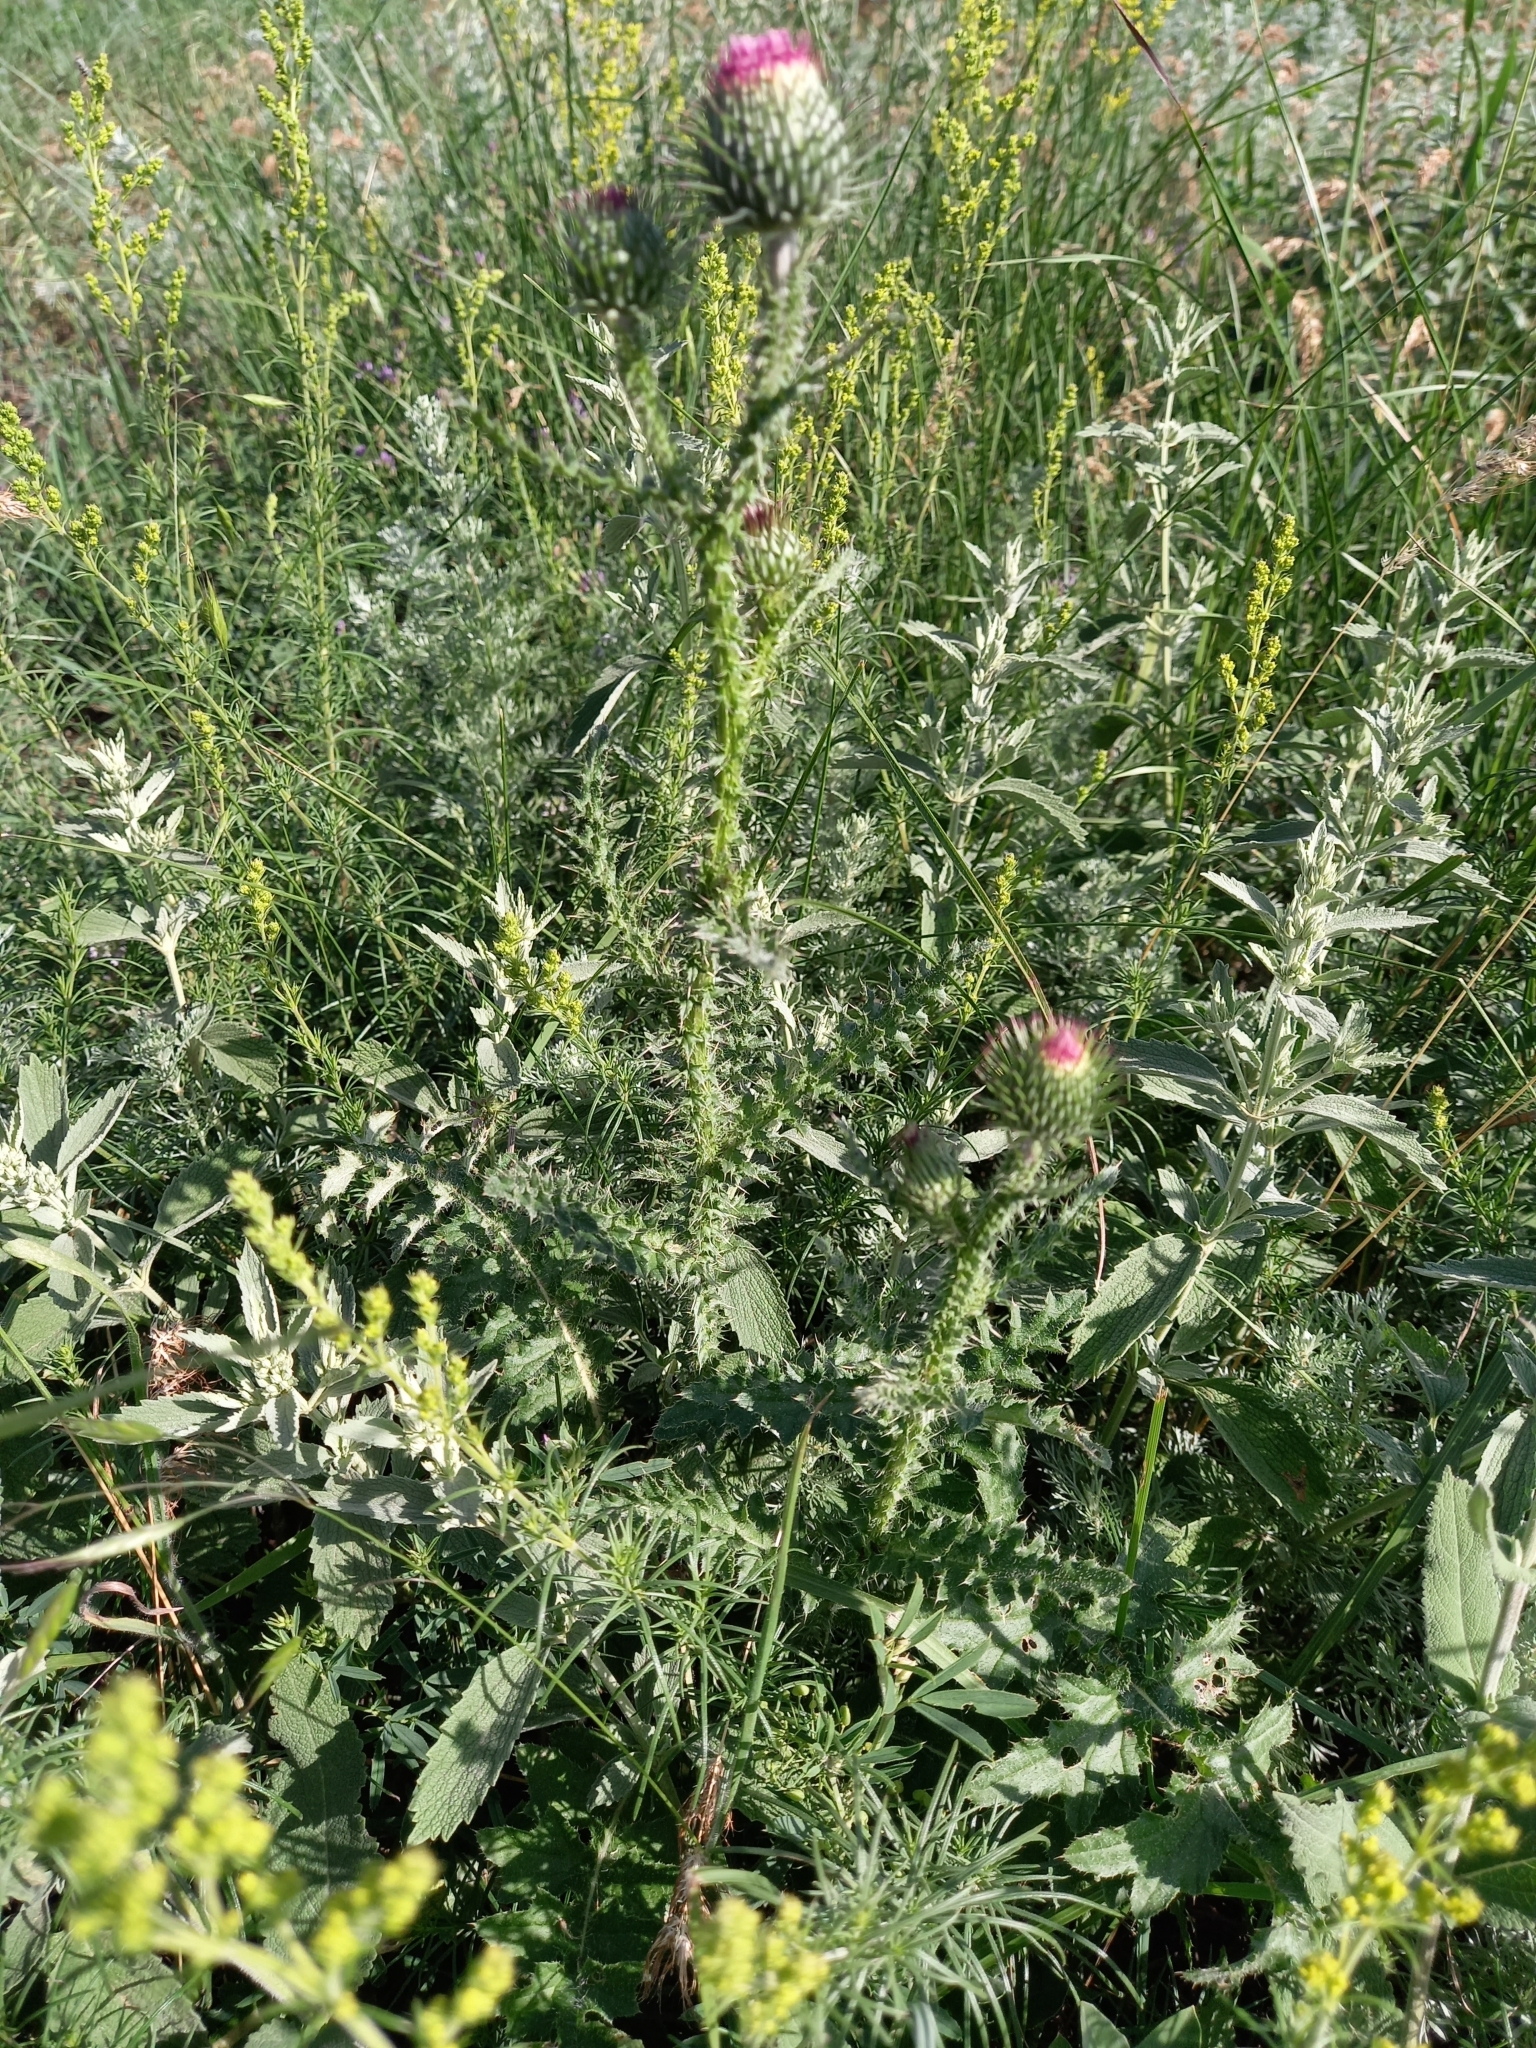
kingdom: Plantae
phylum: Tracheophyta
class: Magnoliopsida
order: Asterales
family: Asteraceae
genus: Carduus
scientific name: Carduus acanthoides
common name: Plumeless thistle
